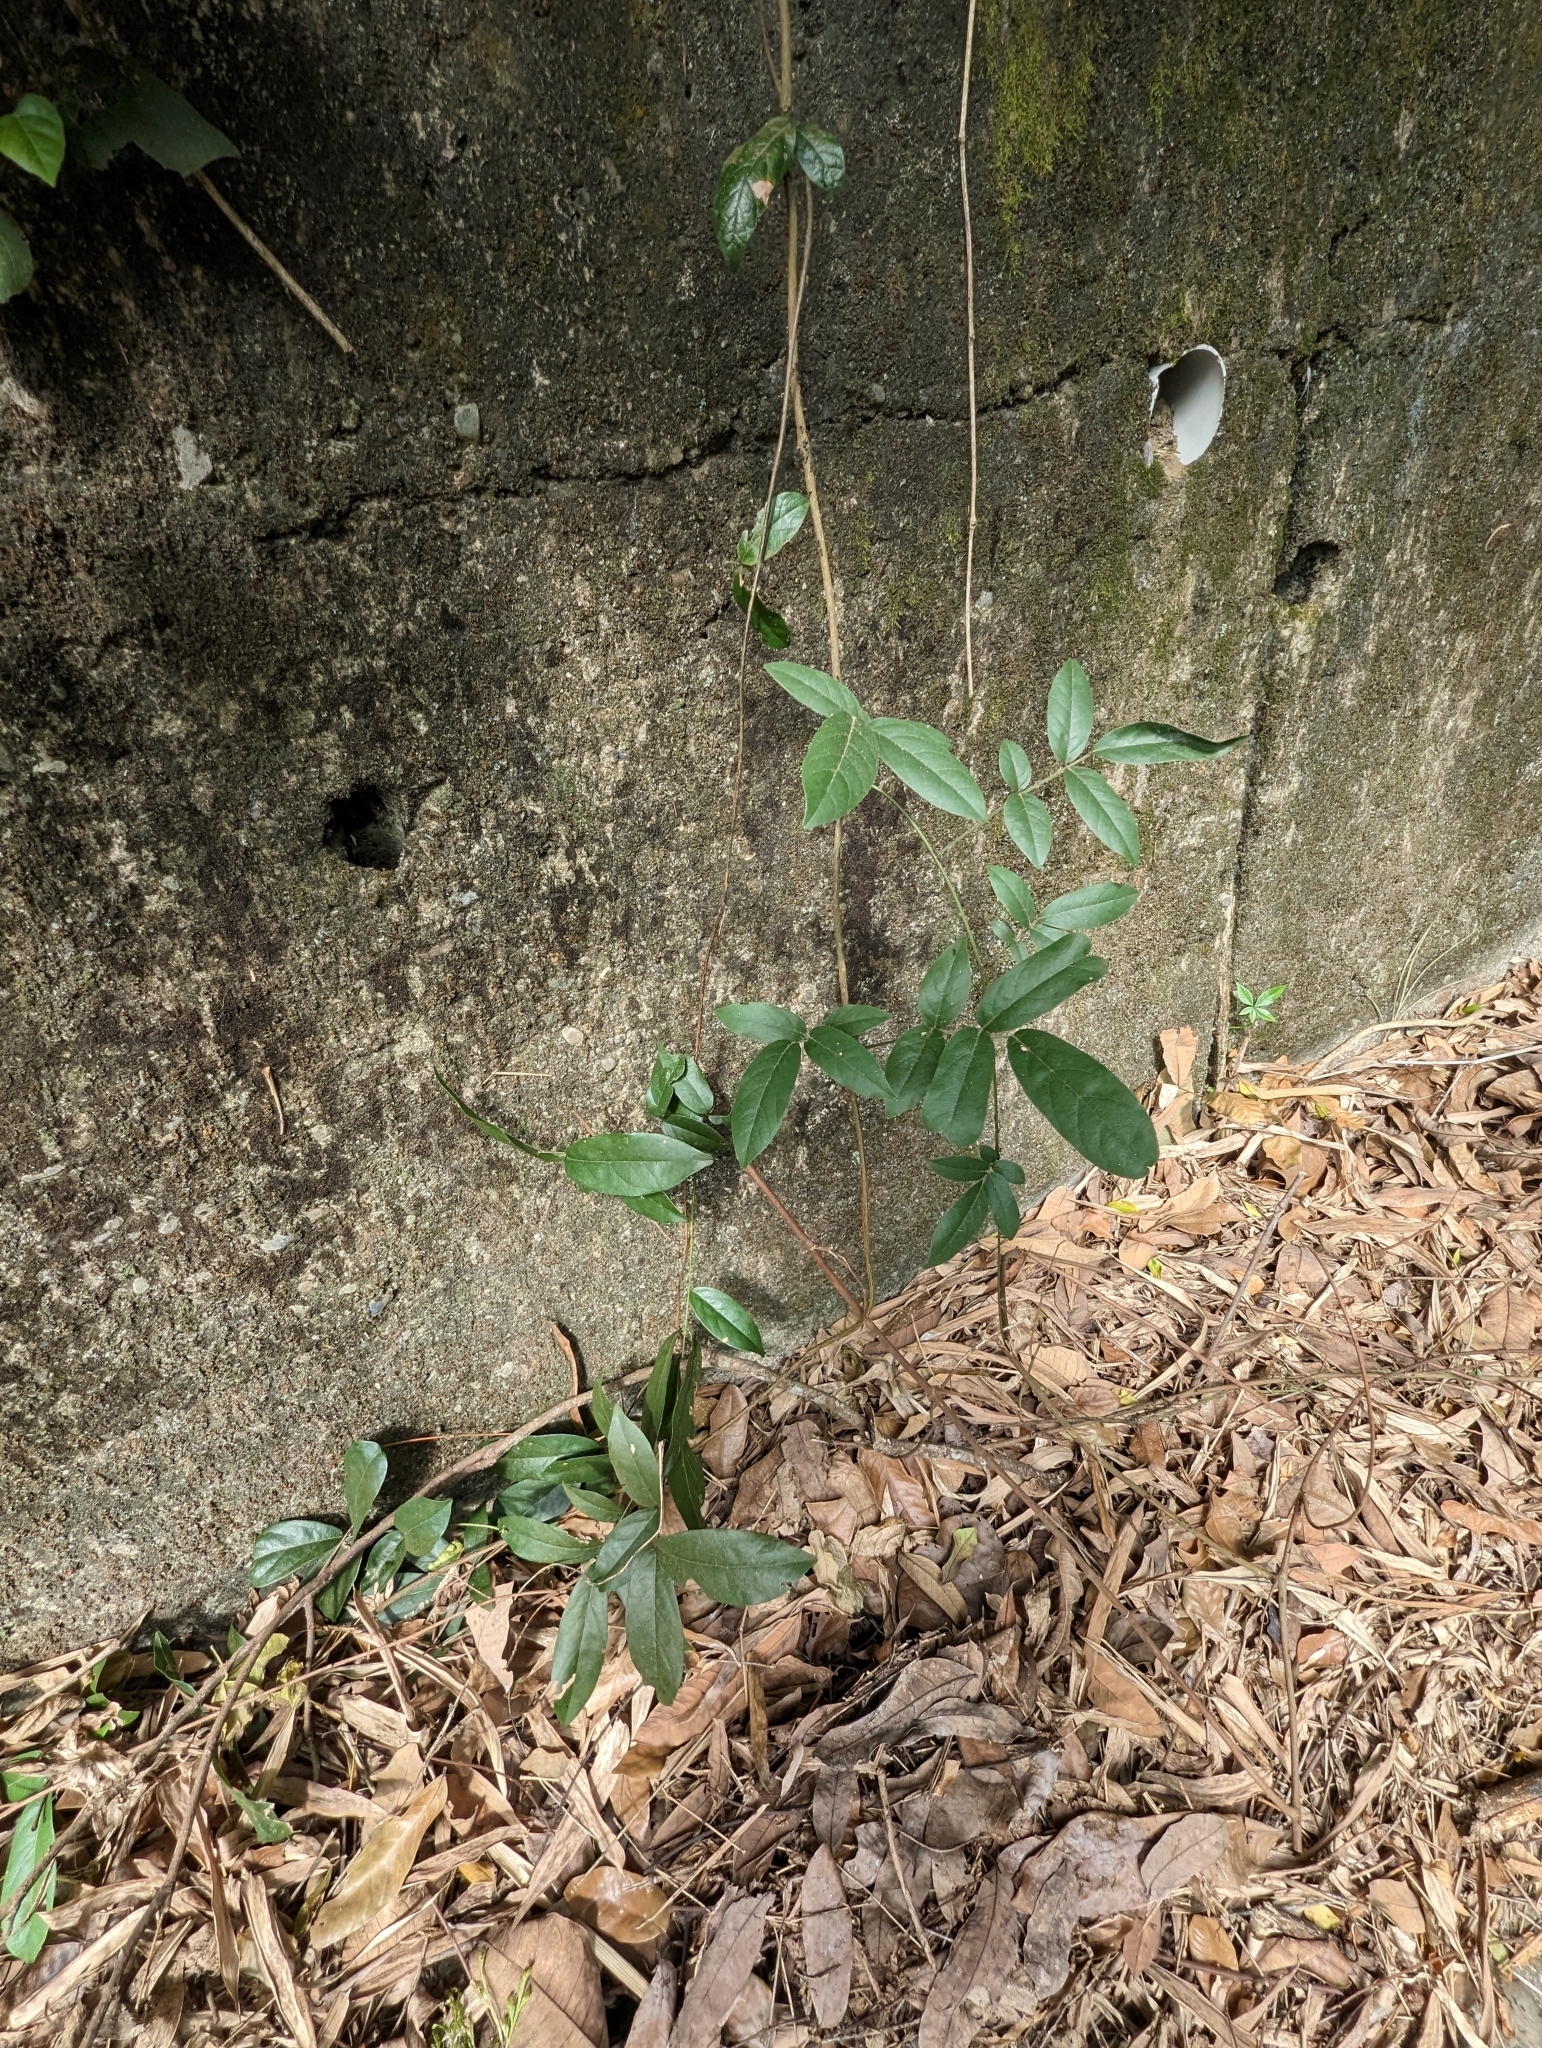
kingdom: Plantae
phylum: Tracheophyta
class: Magnoliopsida
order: Fabales
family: Fabaceae
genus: Callerya
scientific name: Callerya nitida
